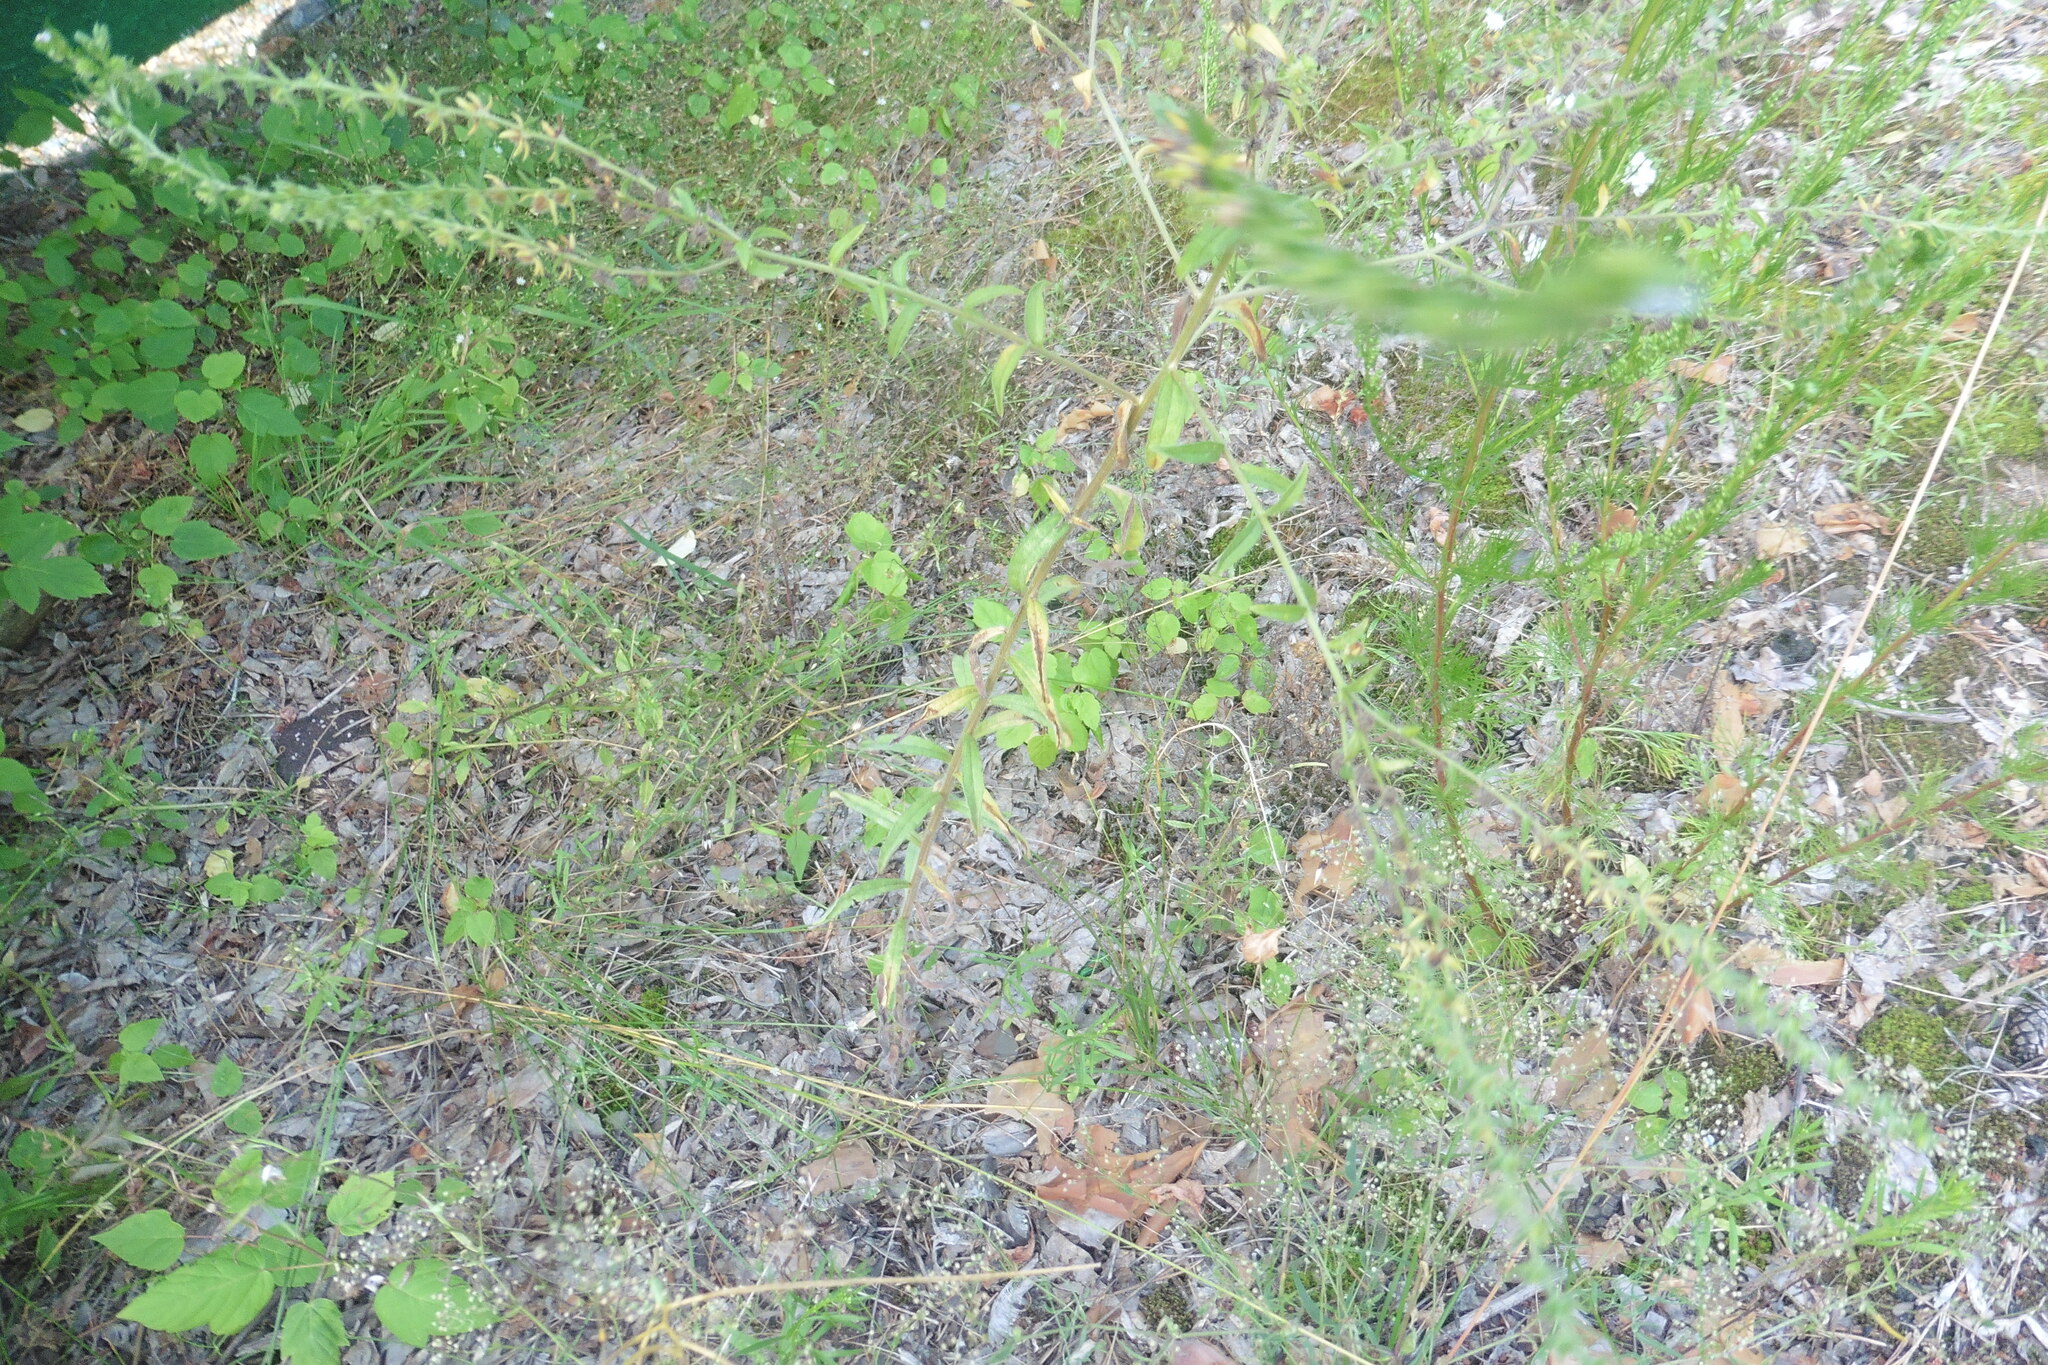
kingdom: Plantae
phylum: Tracheophyta
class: Magnoliopsida
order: Boraginales
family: Boraginaceae
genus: Lappula
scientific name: Lappula squarrosa
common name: European stickseed
